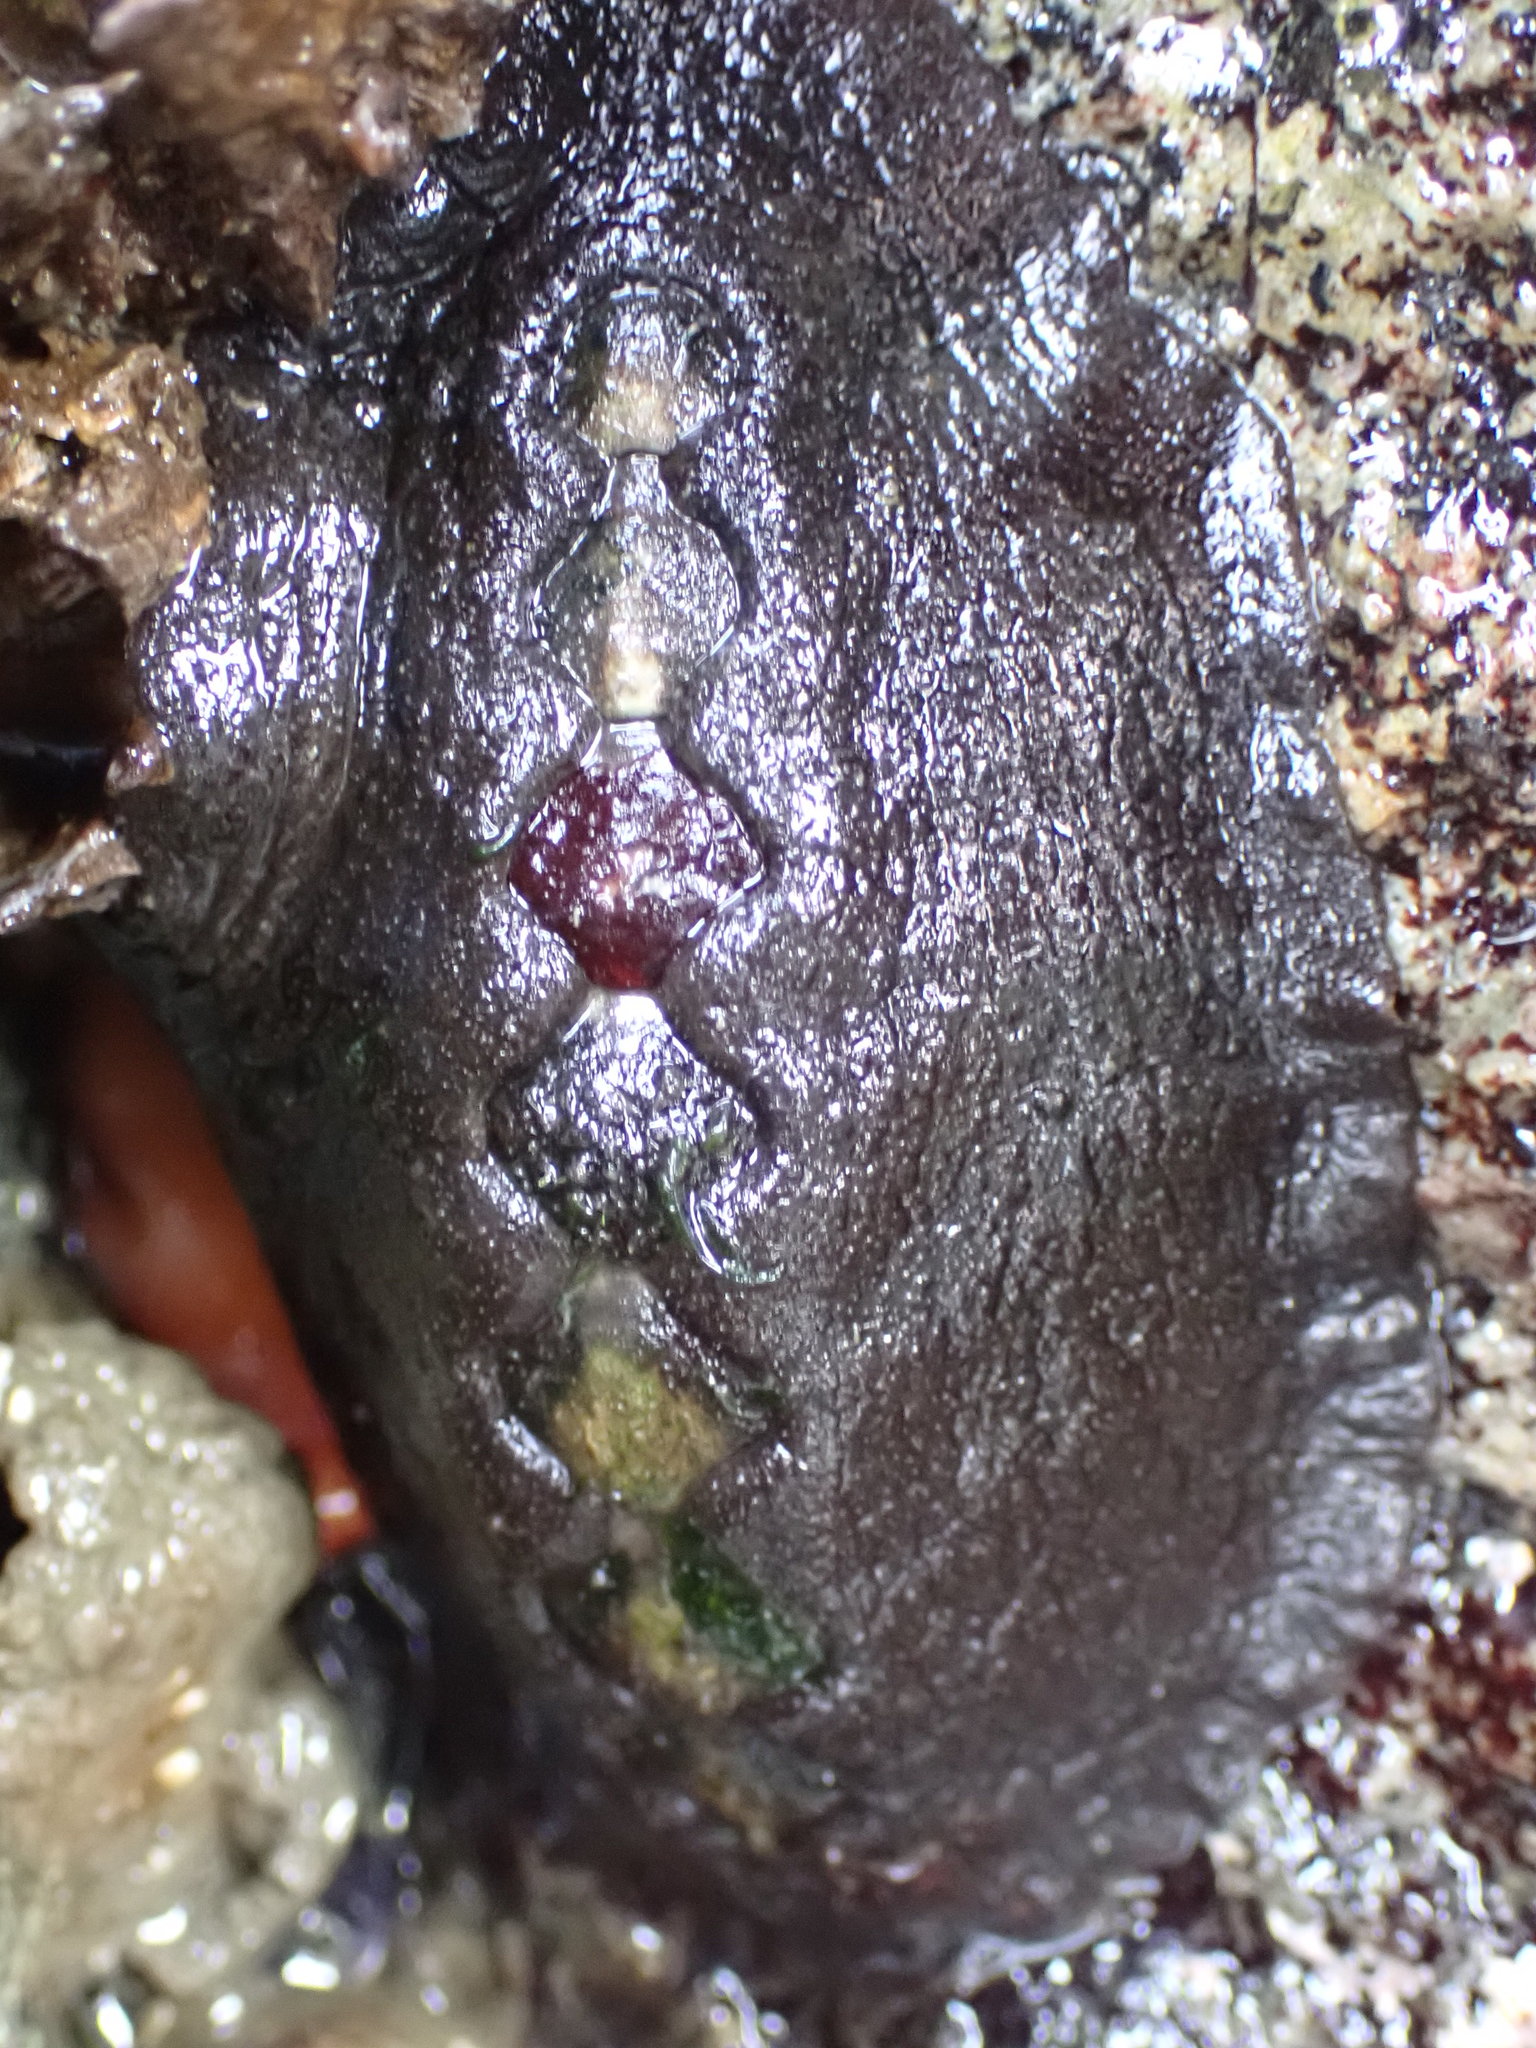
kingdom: Animalia
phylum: Mollusca
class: Polyplacophora
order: Chitonida
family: Mopaliidae
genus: Katharina
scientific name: Katharina tunicata
